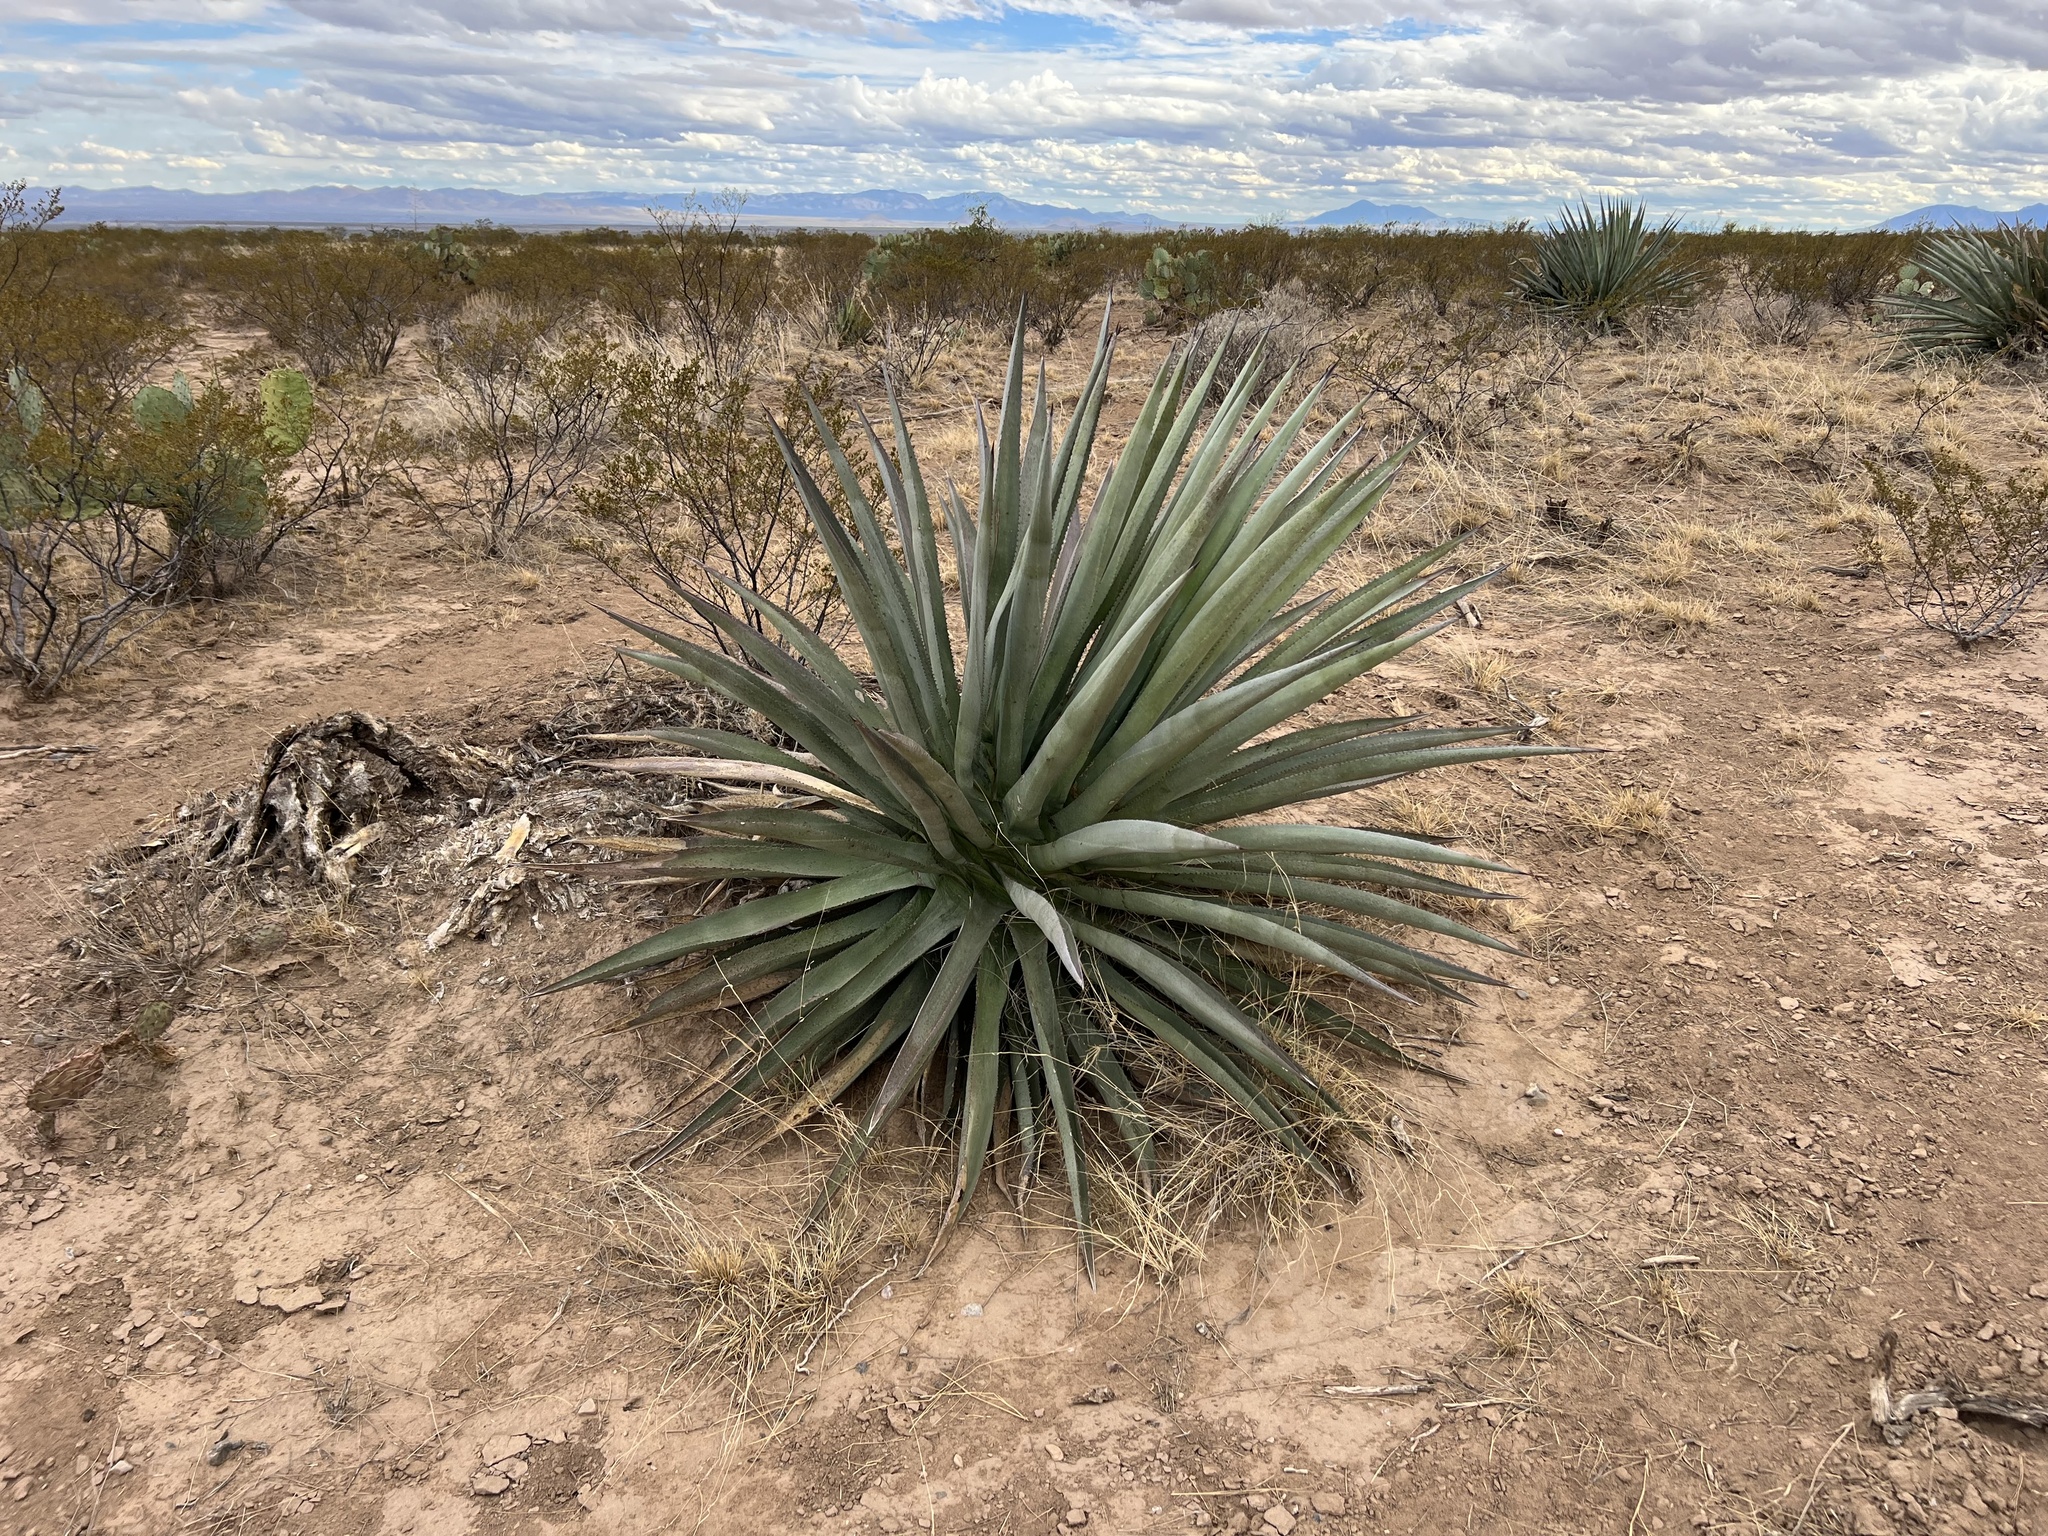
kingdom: Plantae
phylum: Tracheophyta
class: Liliopsida
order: Asparagales
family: Asparagaceae
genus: Agave
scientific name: Agave palmeri
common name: Palmer agave
